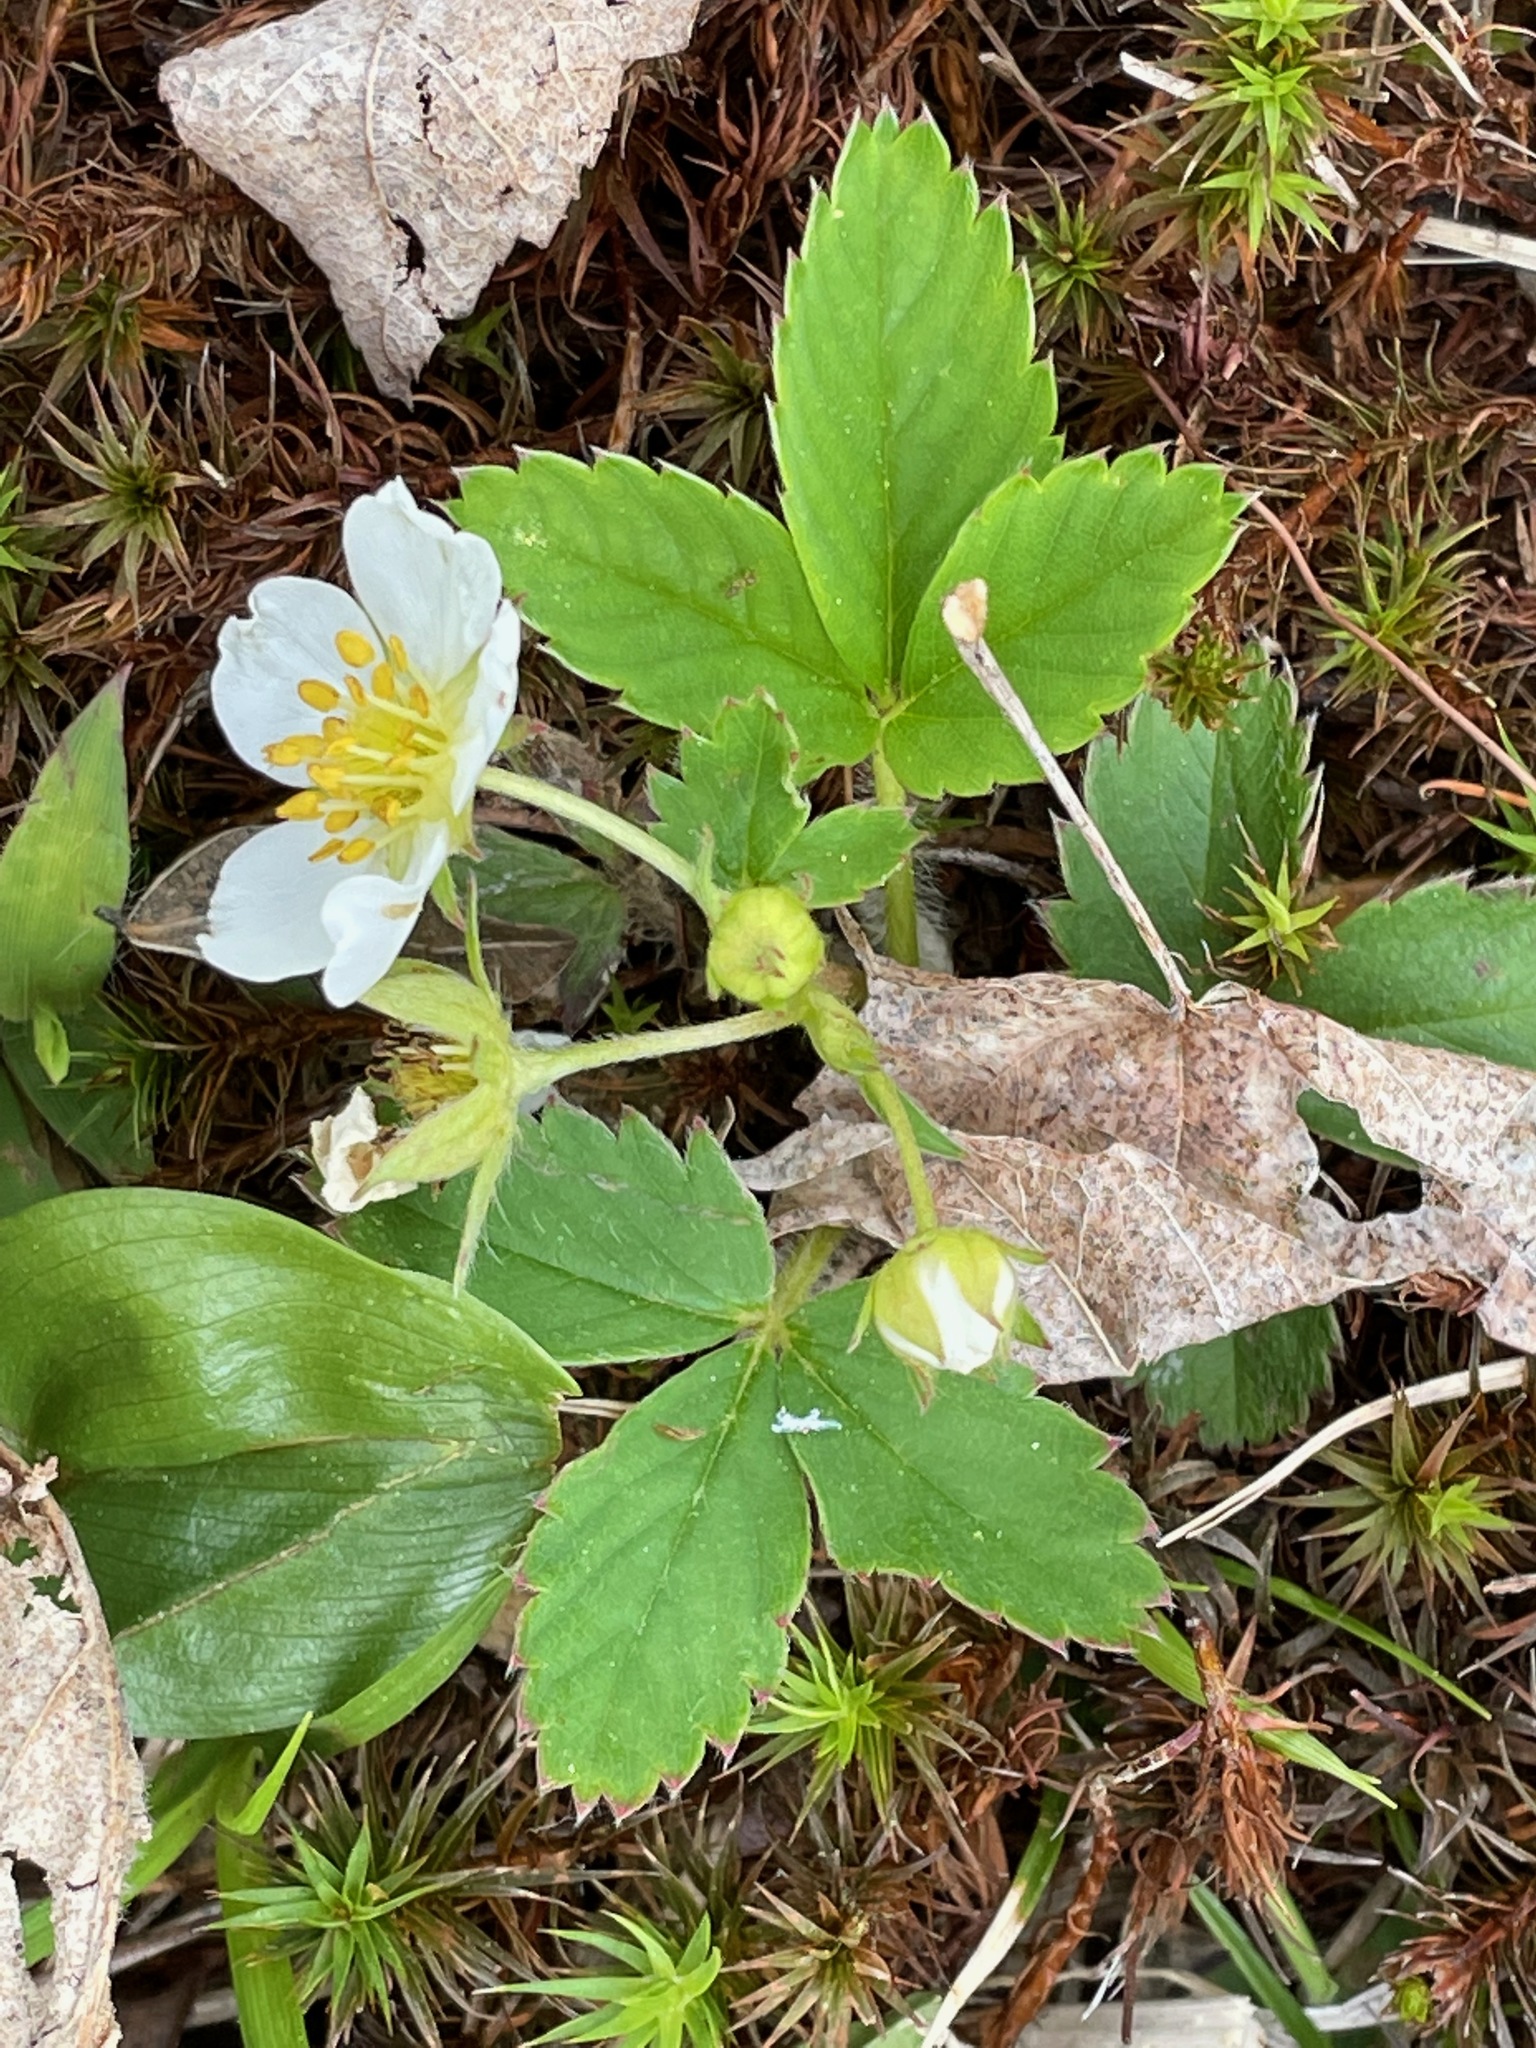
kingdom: Plantae
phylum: Tracheophyta
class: Magnoliopsida
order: Rosales
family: Rosaceae
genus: Fragaria
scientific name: Fragaria virginiana
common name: Thickleaved wild strawberry
